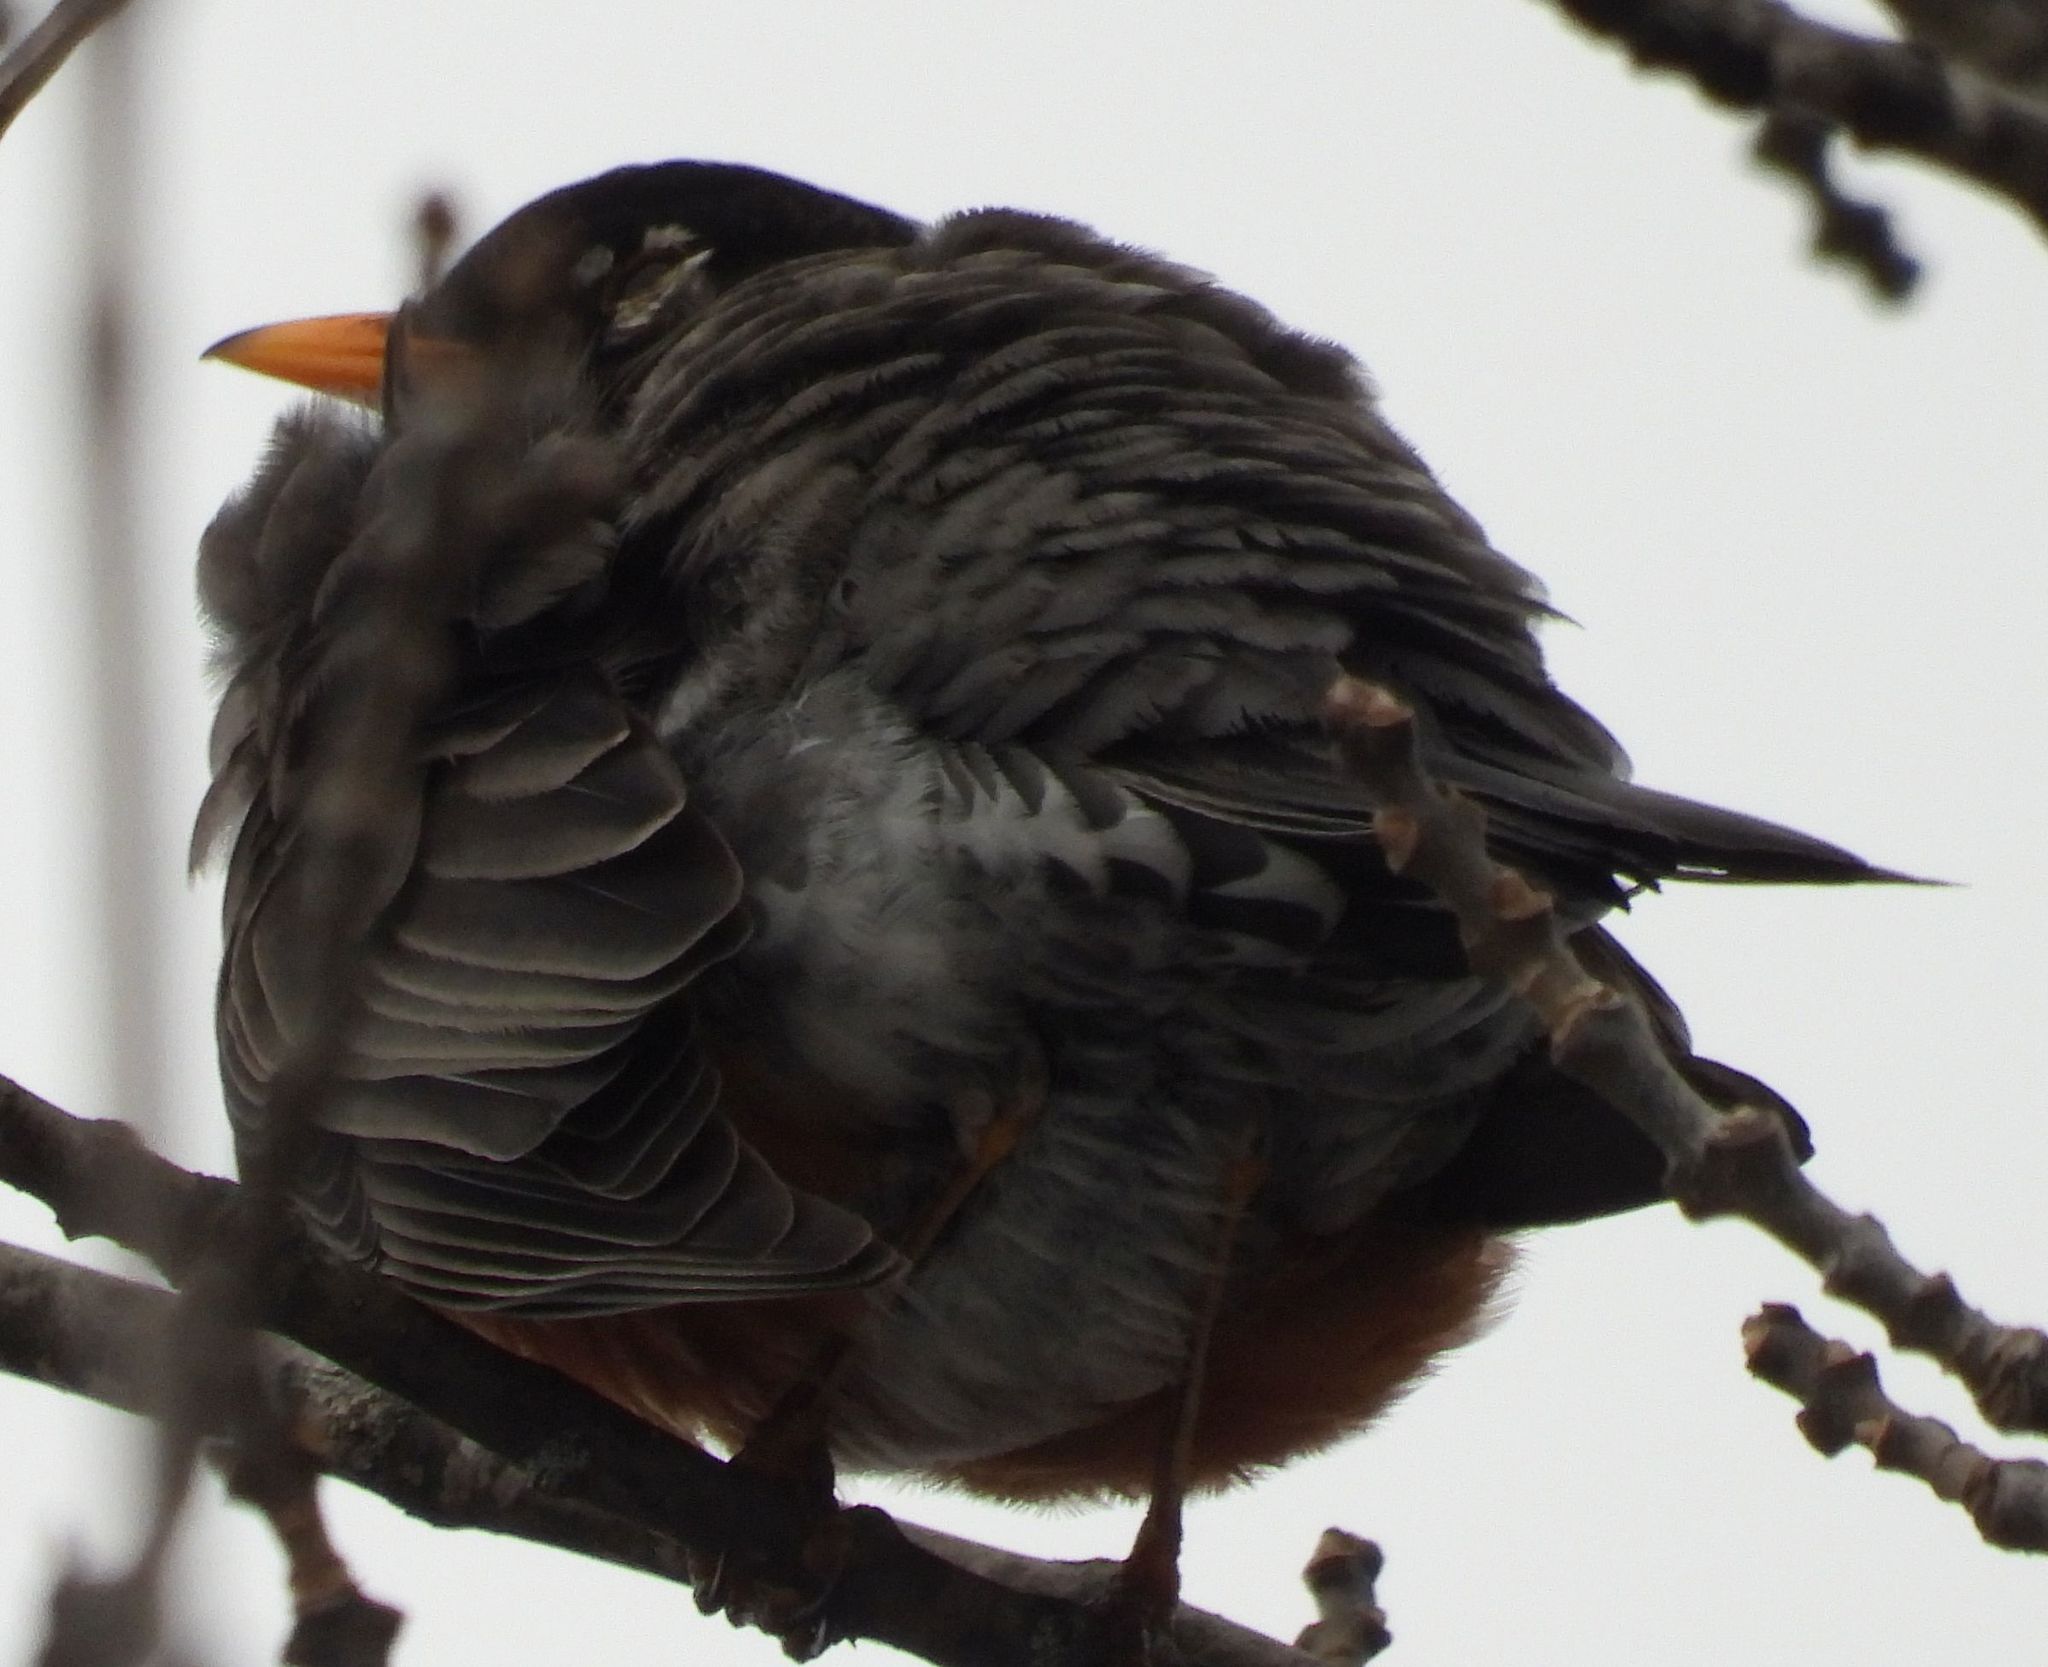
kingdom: Animalia
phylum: Chordata
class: Aves
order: Passeriformes
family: Turdidae
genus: Turdus
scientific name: Turdus migratorius
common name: American robin
